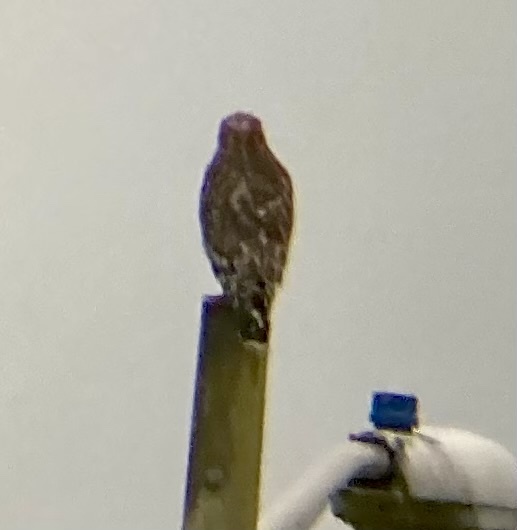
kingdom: Animalia
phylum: Chordata
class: Aves
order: Accipitriformes
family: Accipitridae
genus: Buteo
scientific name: Buteo lineatus
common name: Red-shouldered hawk
